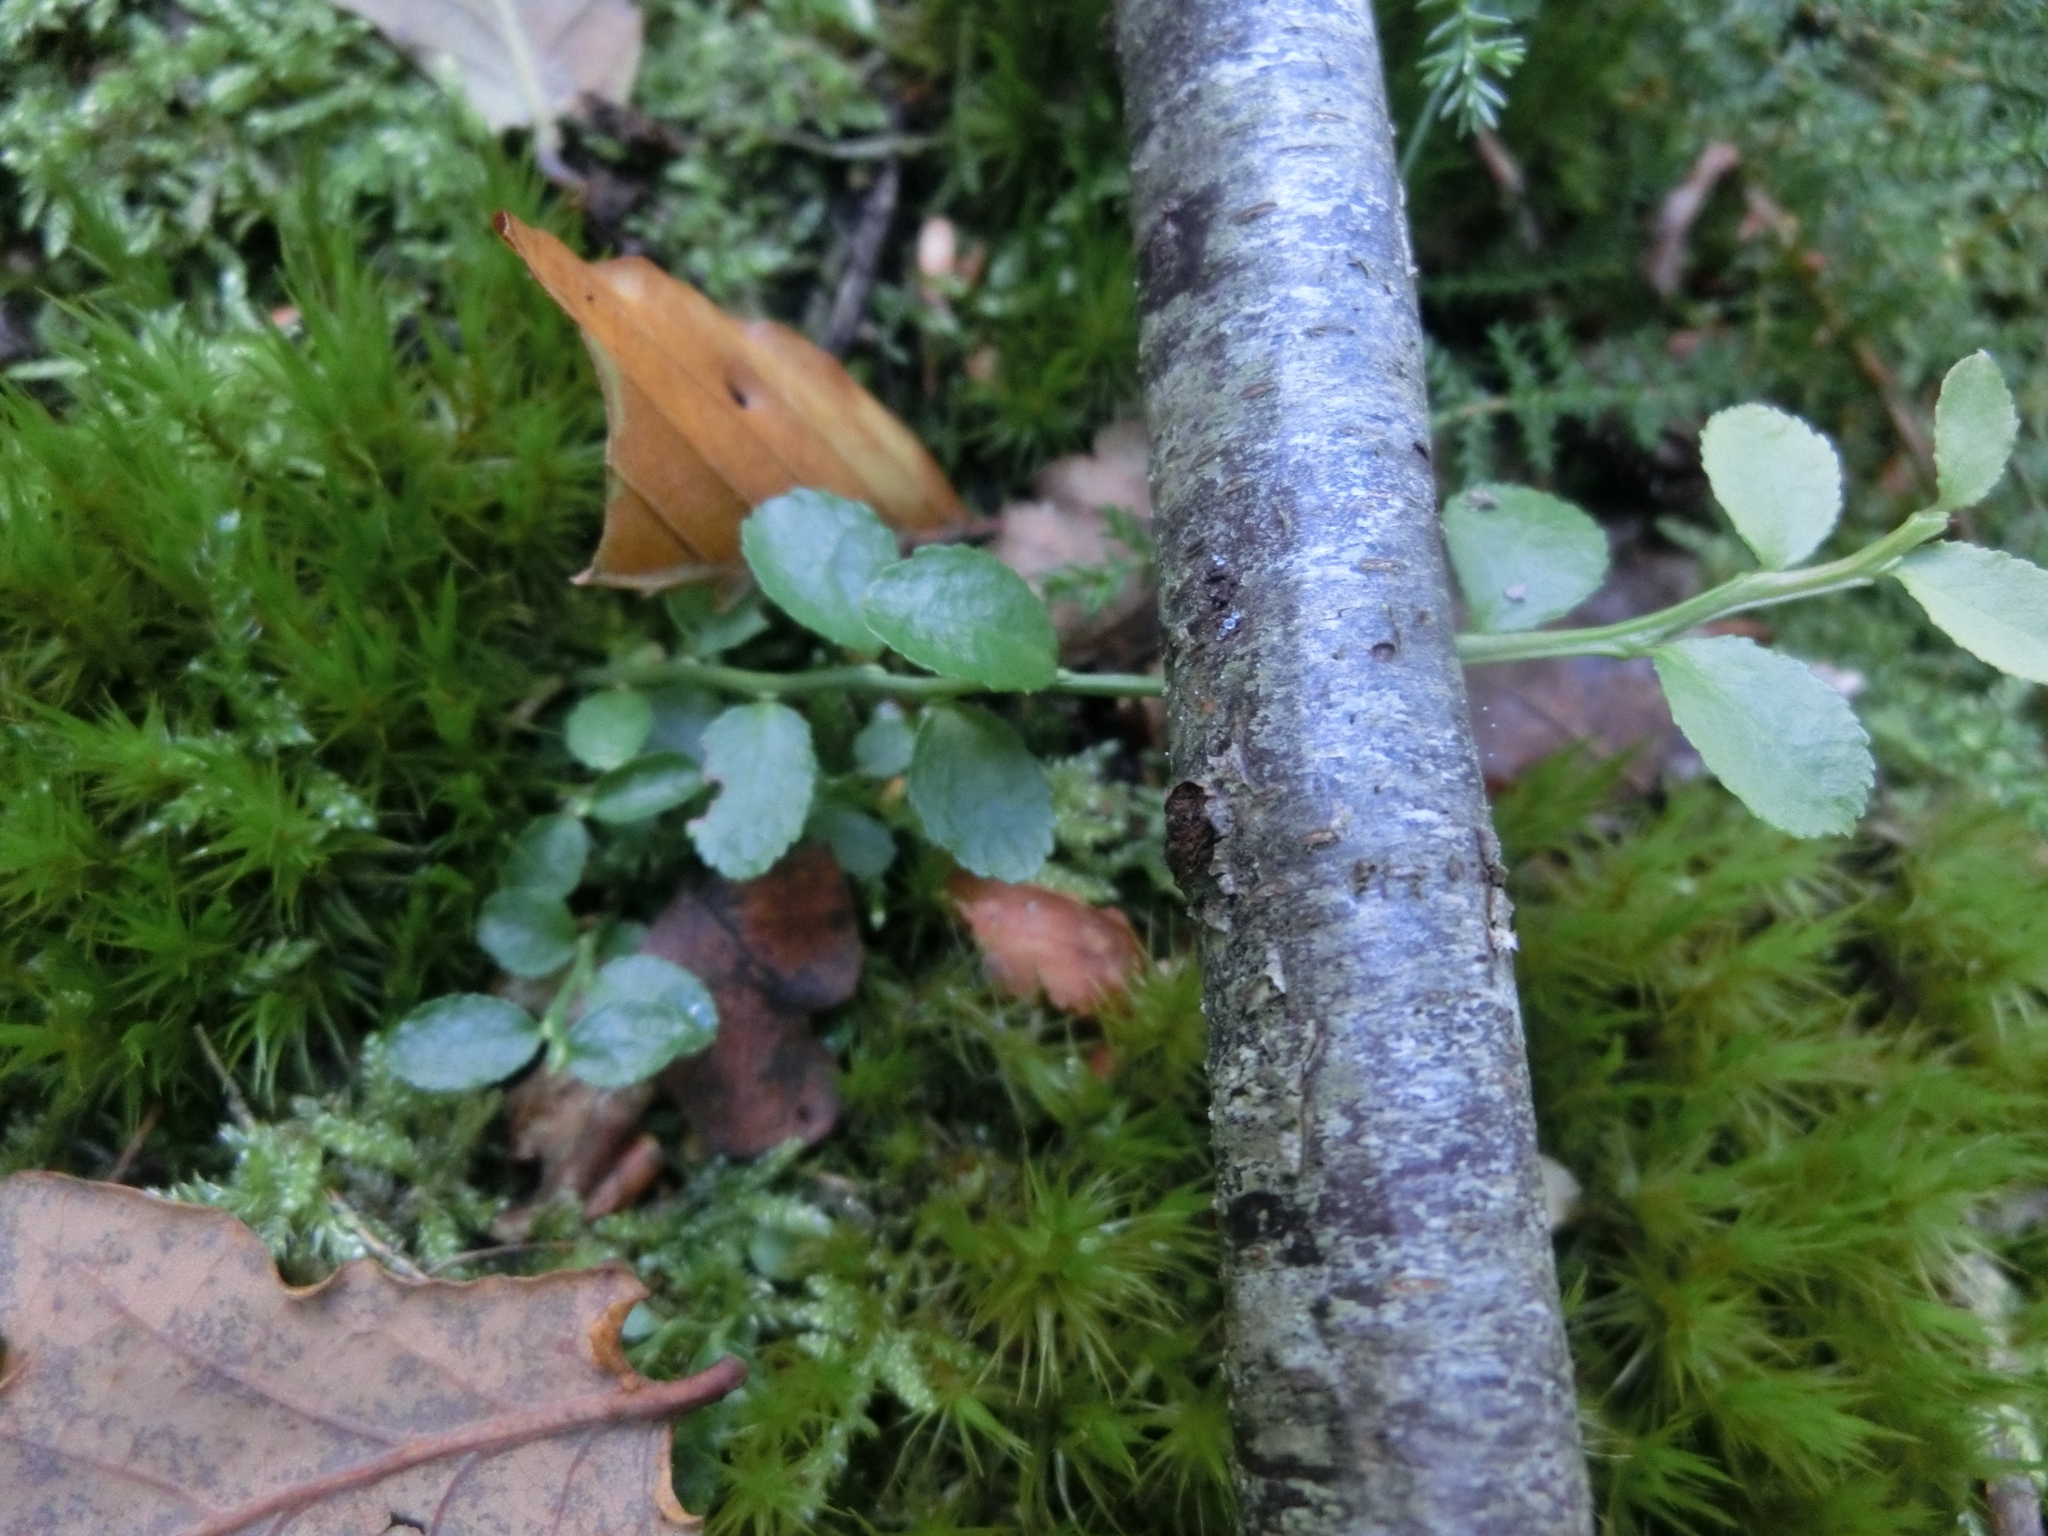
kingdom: Plantae
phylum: Tracheophyta
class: Magnoliopsida
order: Ericales
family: Ericaceae
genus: Vaccinium
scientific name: Vaccinium myrtillus
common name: Bilberry
